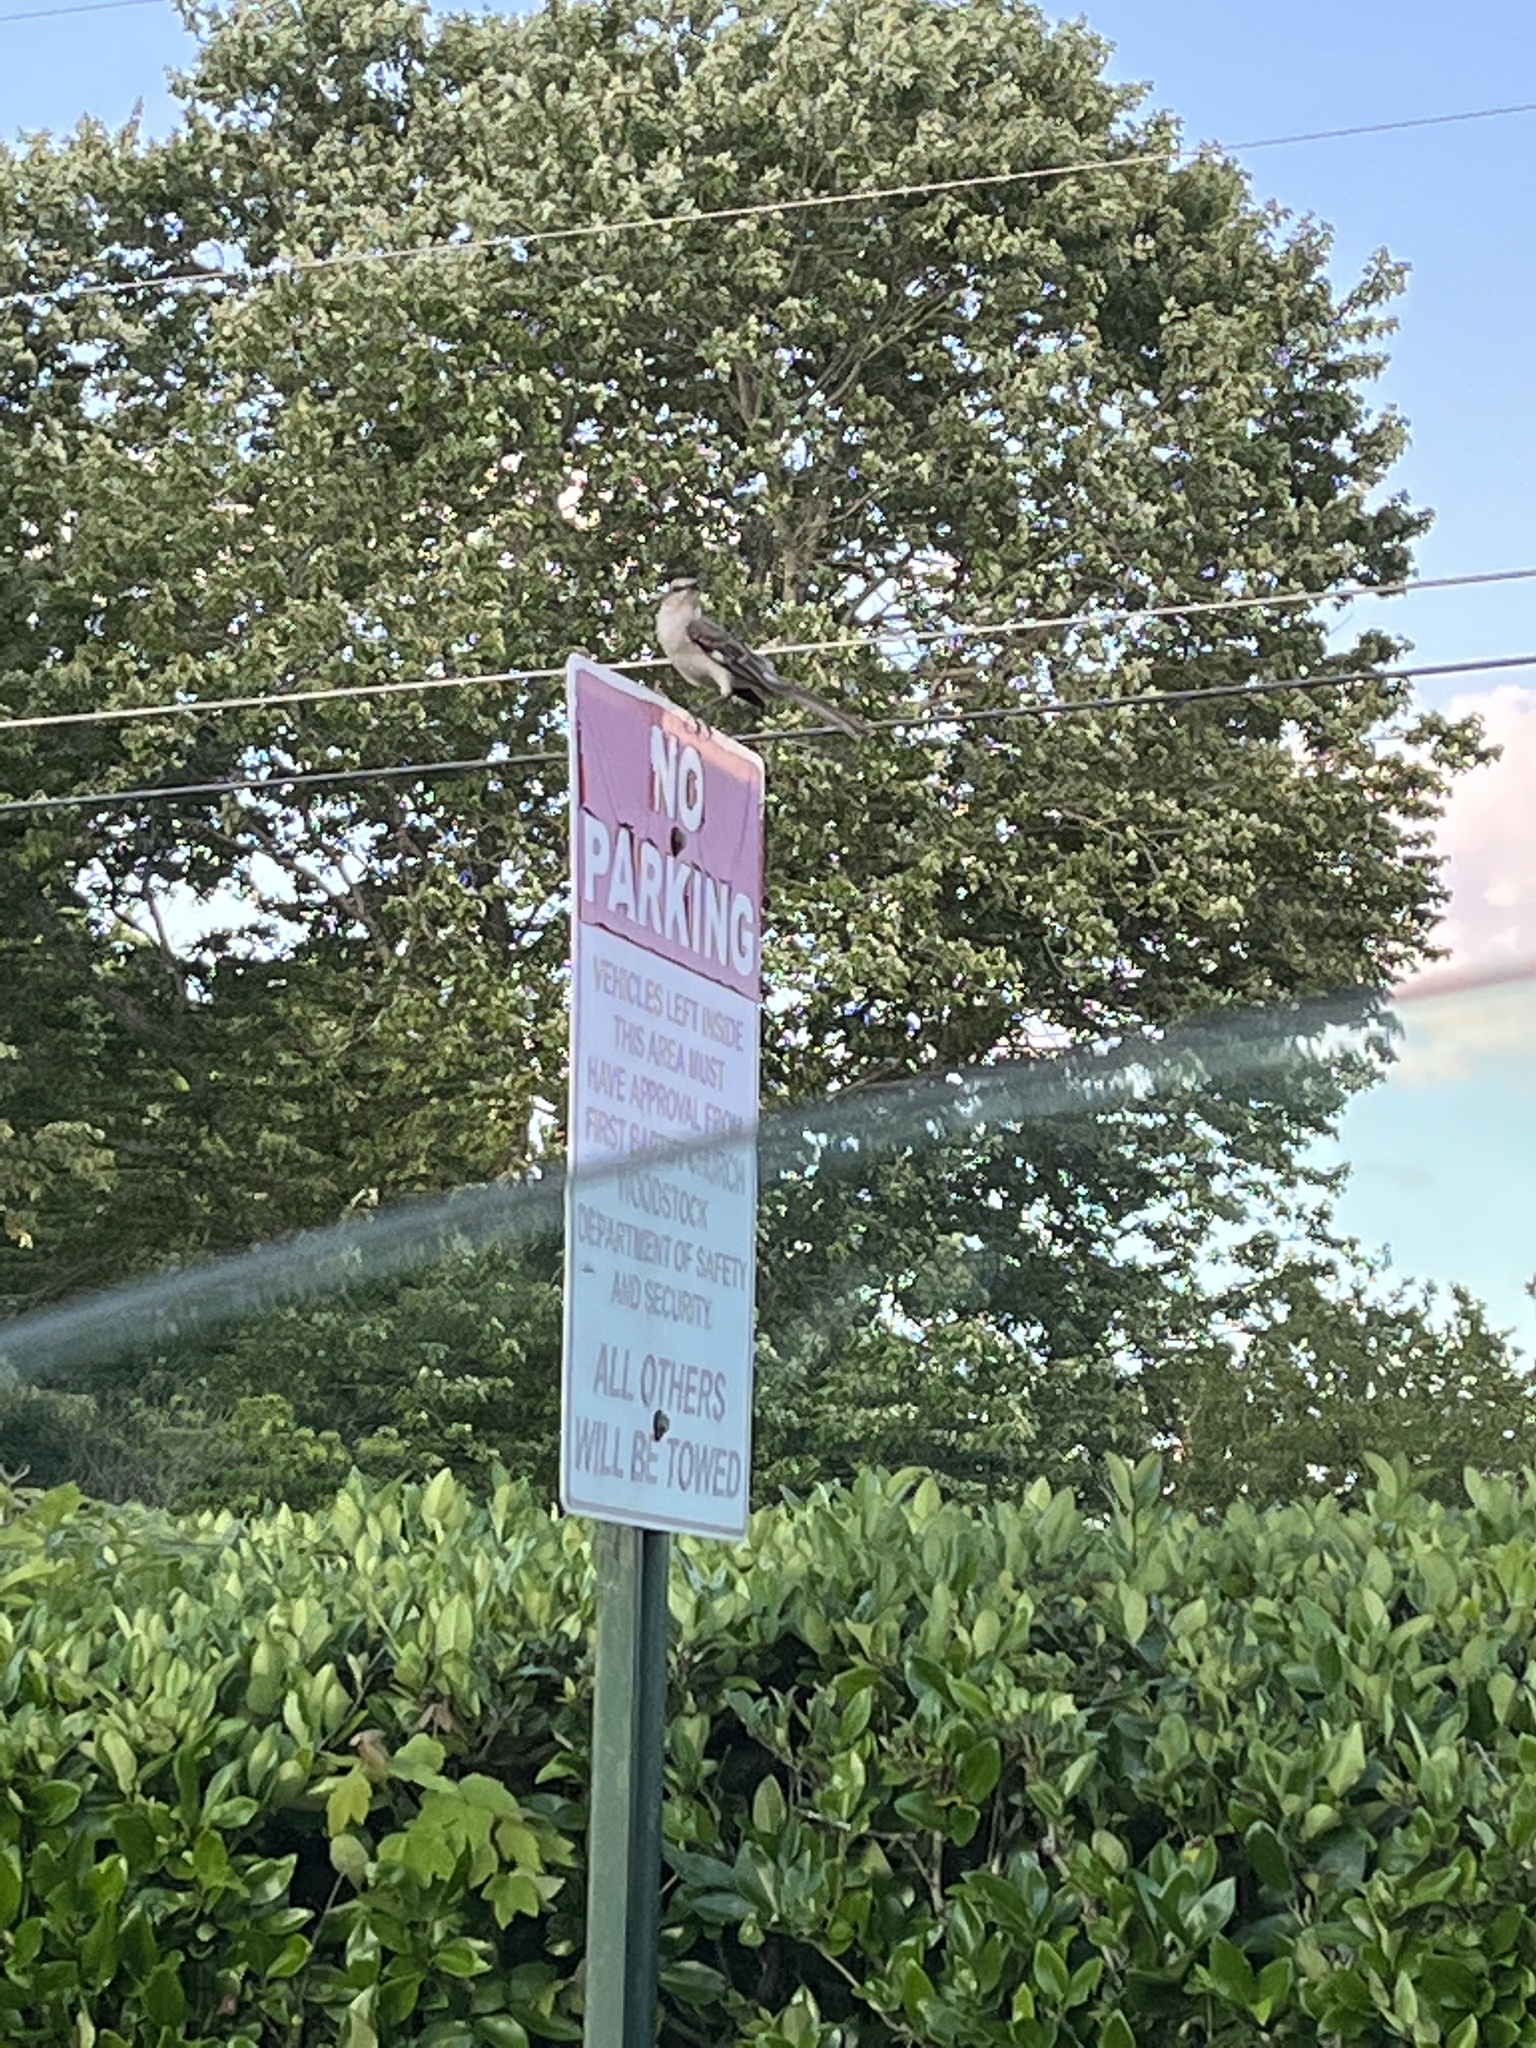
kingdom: Animalia
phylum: Chordata
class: Aves
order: Passeriformes
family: Mimidae
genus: Mimus
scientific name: Mimus polyglottos
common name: Northern mockingbird
